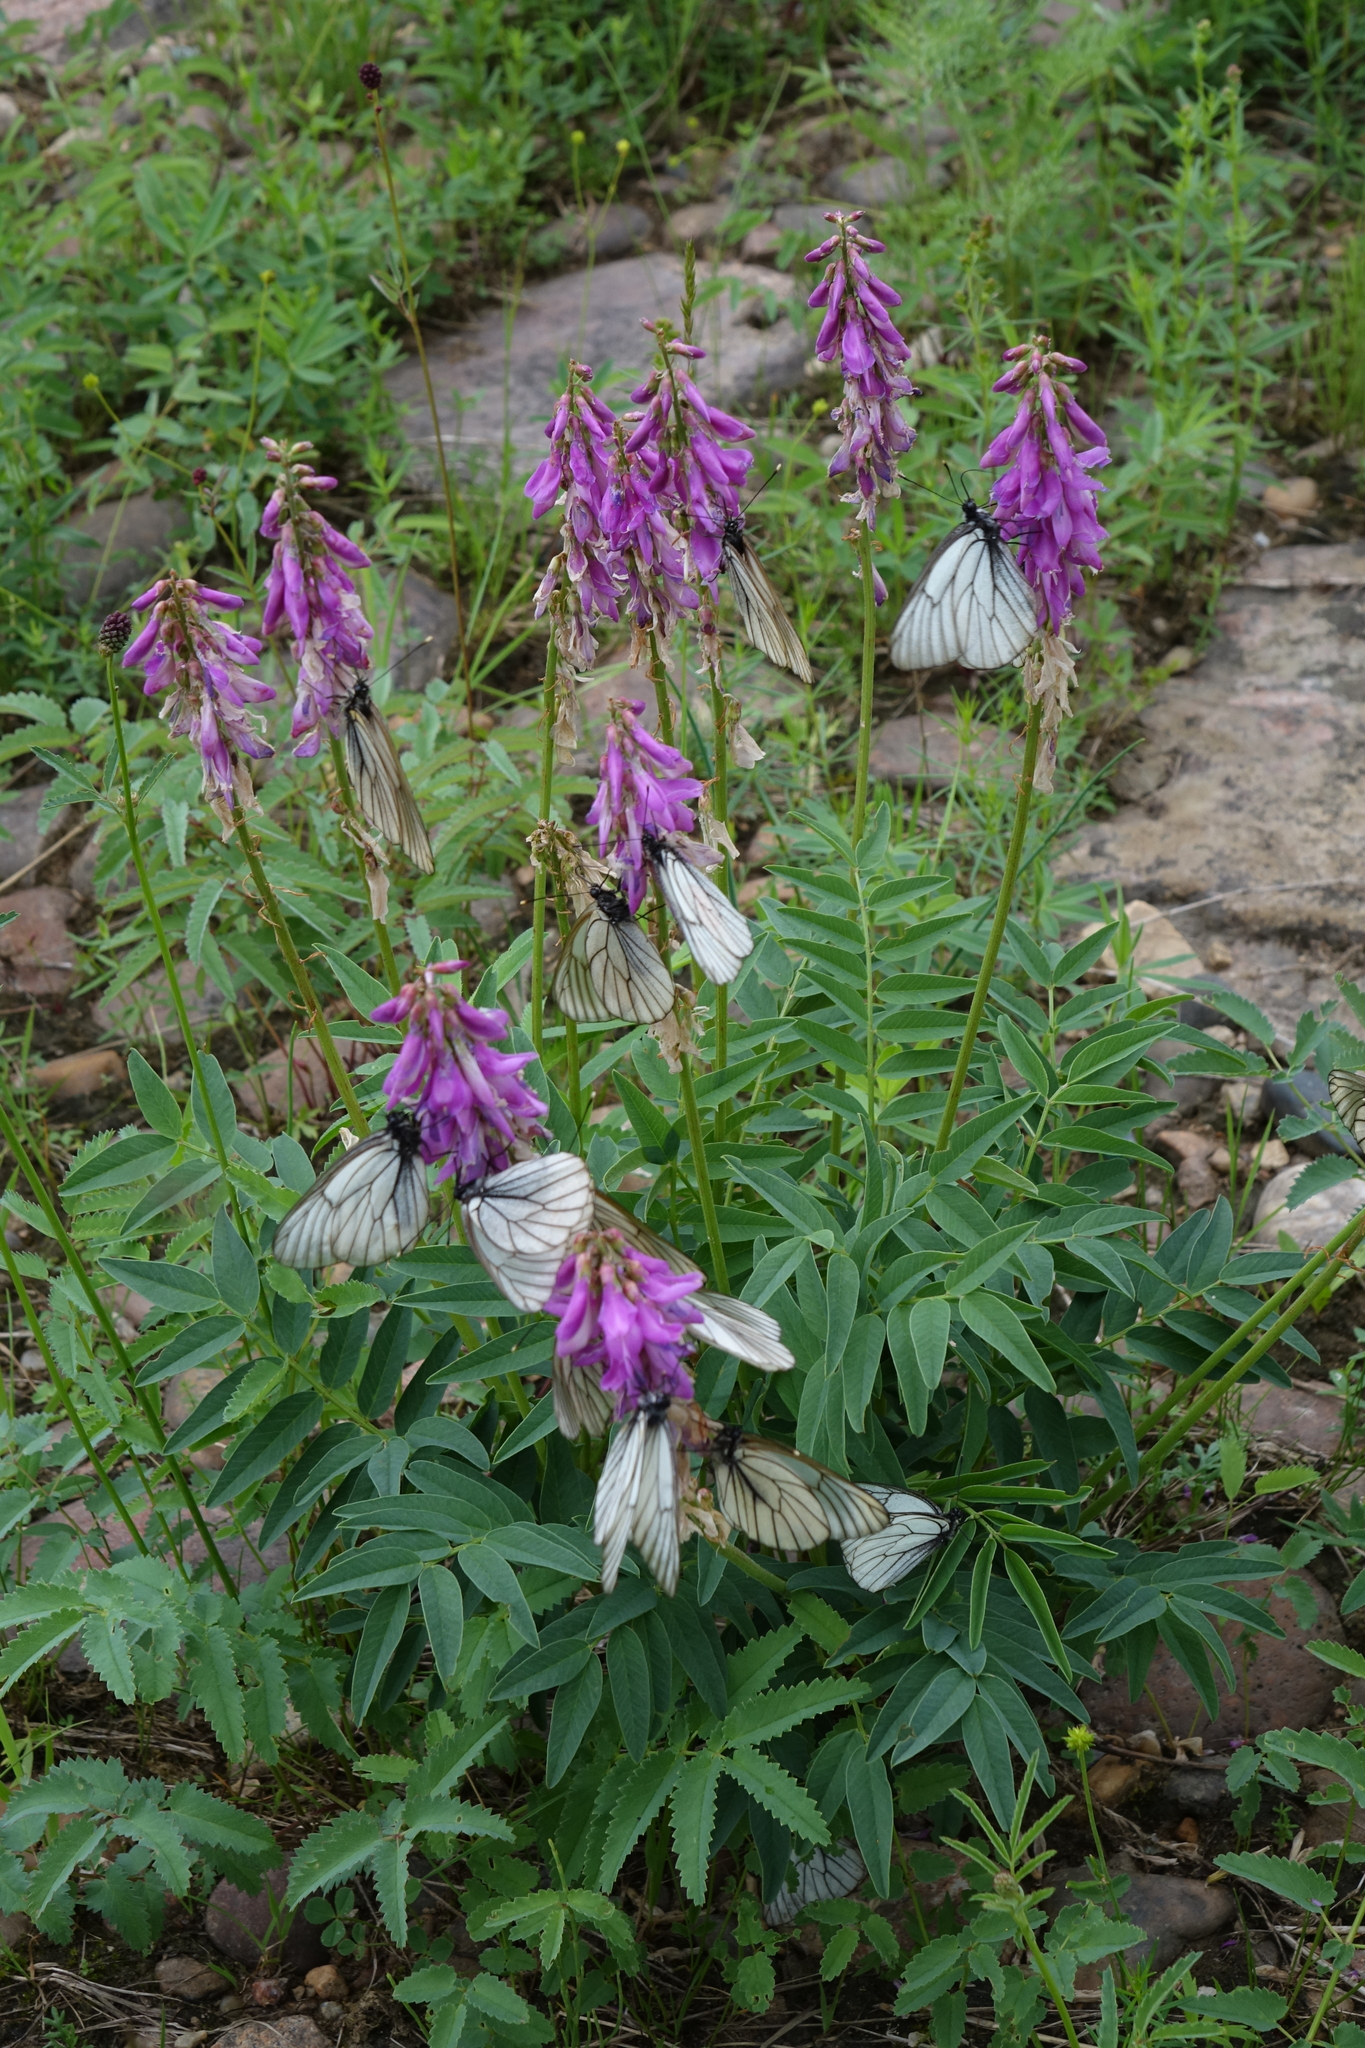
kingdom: Animalia
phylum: Arthropoda
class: Insecta
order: Lepidoptera
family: Pieridae
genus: Aporia
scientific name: Aporia crataegi
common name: Black-veined white
